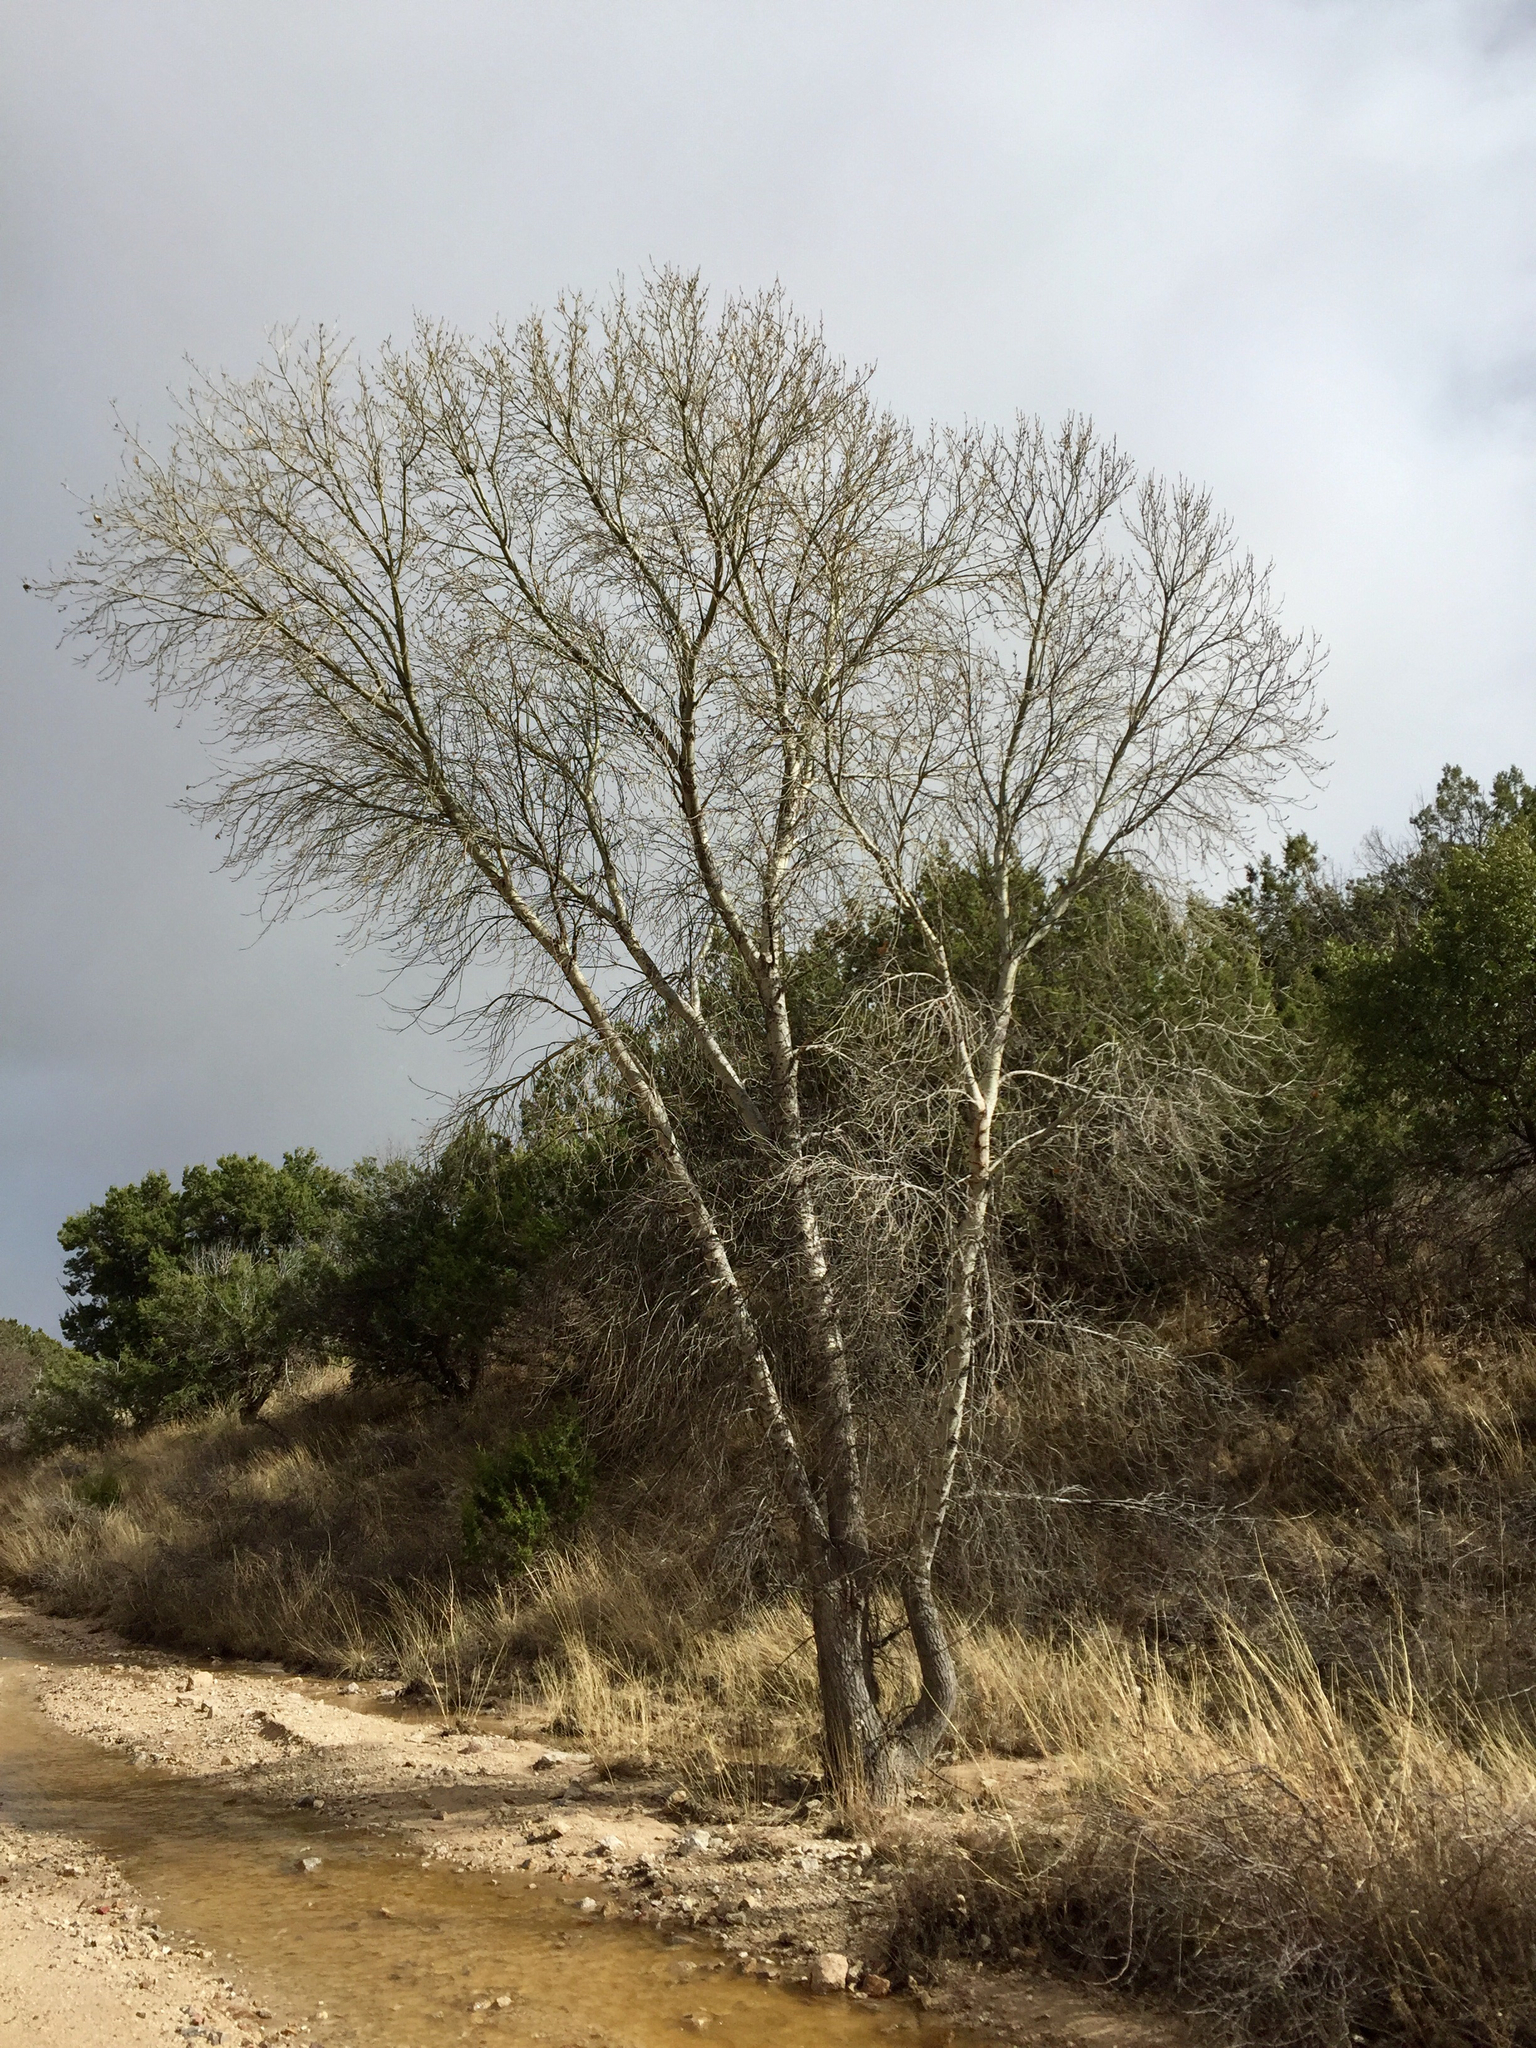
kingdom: Plantae
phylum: Tracheophyta
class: Magnoliopsida
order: Malpighiales
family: Salicaceae
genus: Populus
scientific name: Populus fremontii
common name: Fremont's cottonwood
